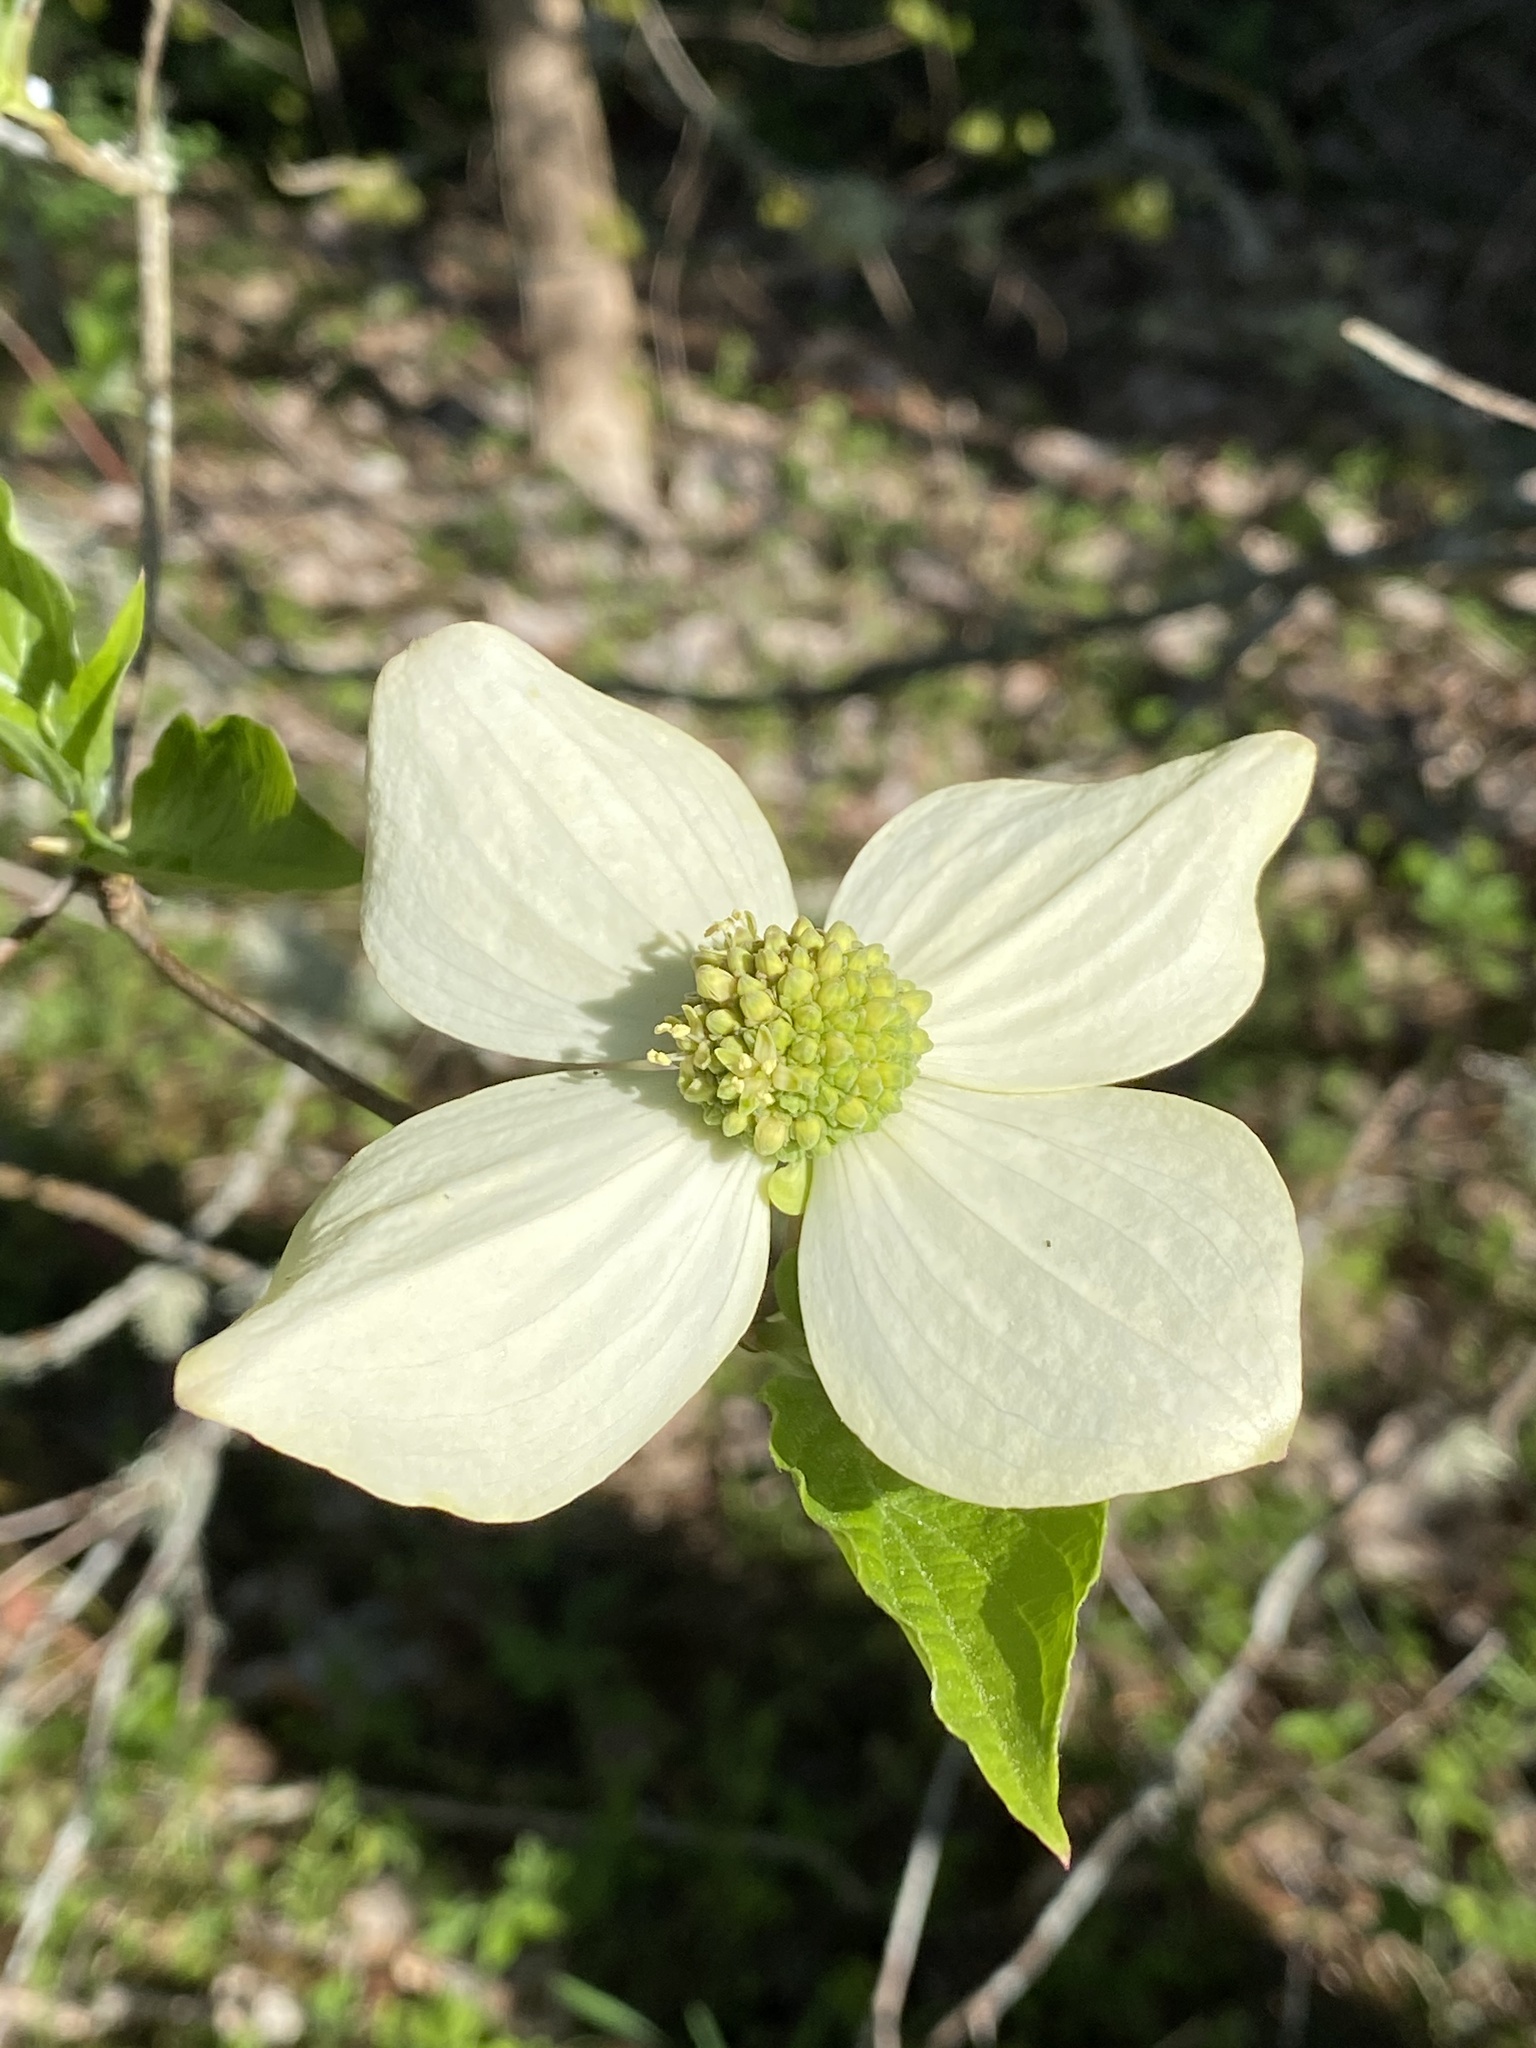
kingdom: Plantae
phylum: Tracheophyta
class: Magnoliopsida
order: Cornales
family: Cornaceae
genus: Cornus
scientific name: Cornus nuttallii
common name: Pacific dogwood
